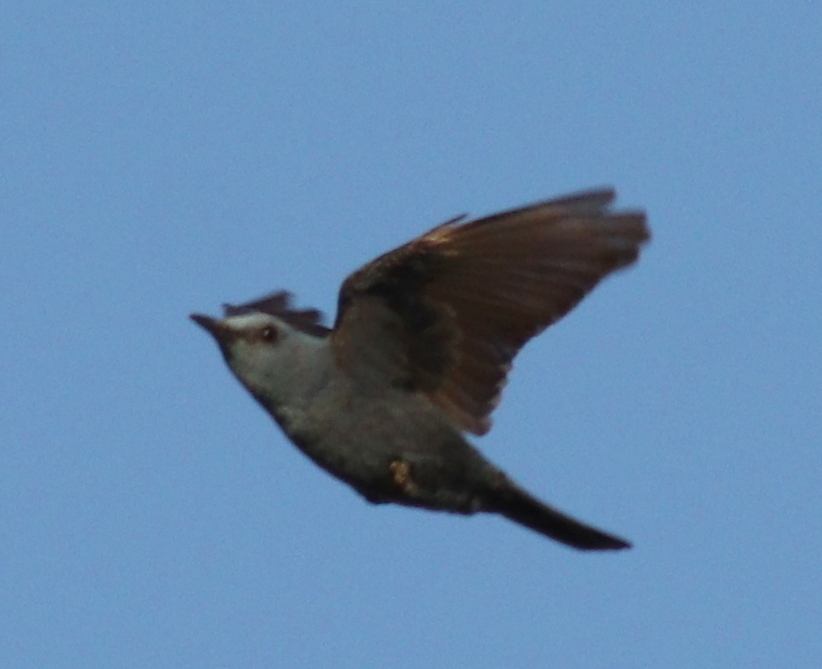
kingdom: Animalia
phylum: Chordata
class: Aves
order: Passeriformes
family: Muscicapidae
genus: Monticola
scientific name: Monticola solitarius
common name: Blue rock thrush
